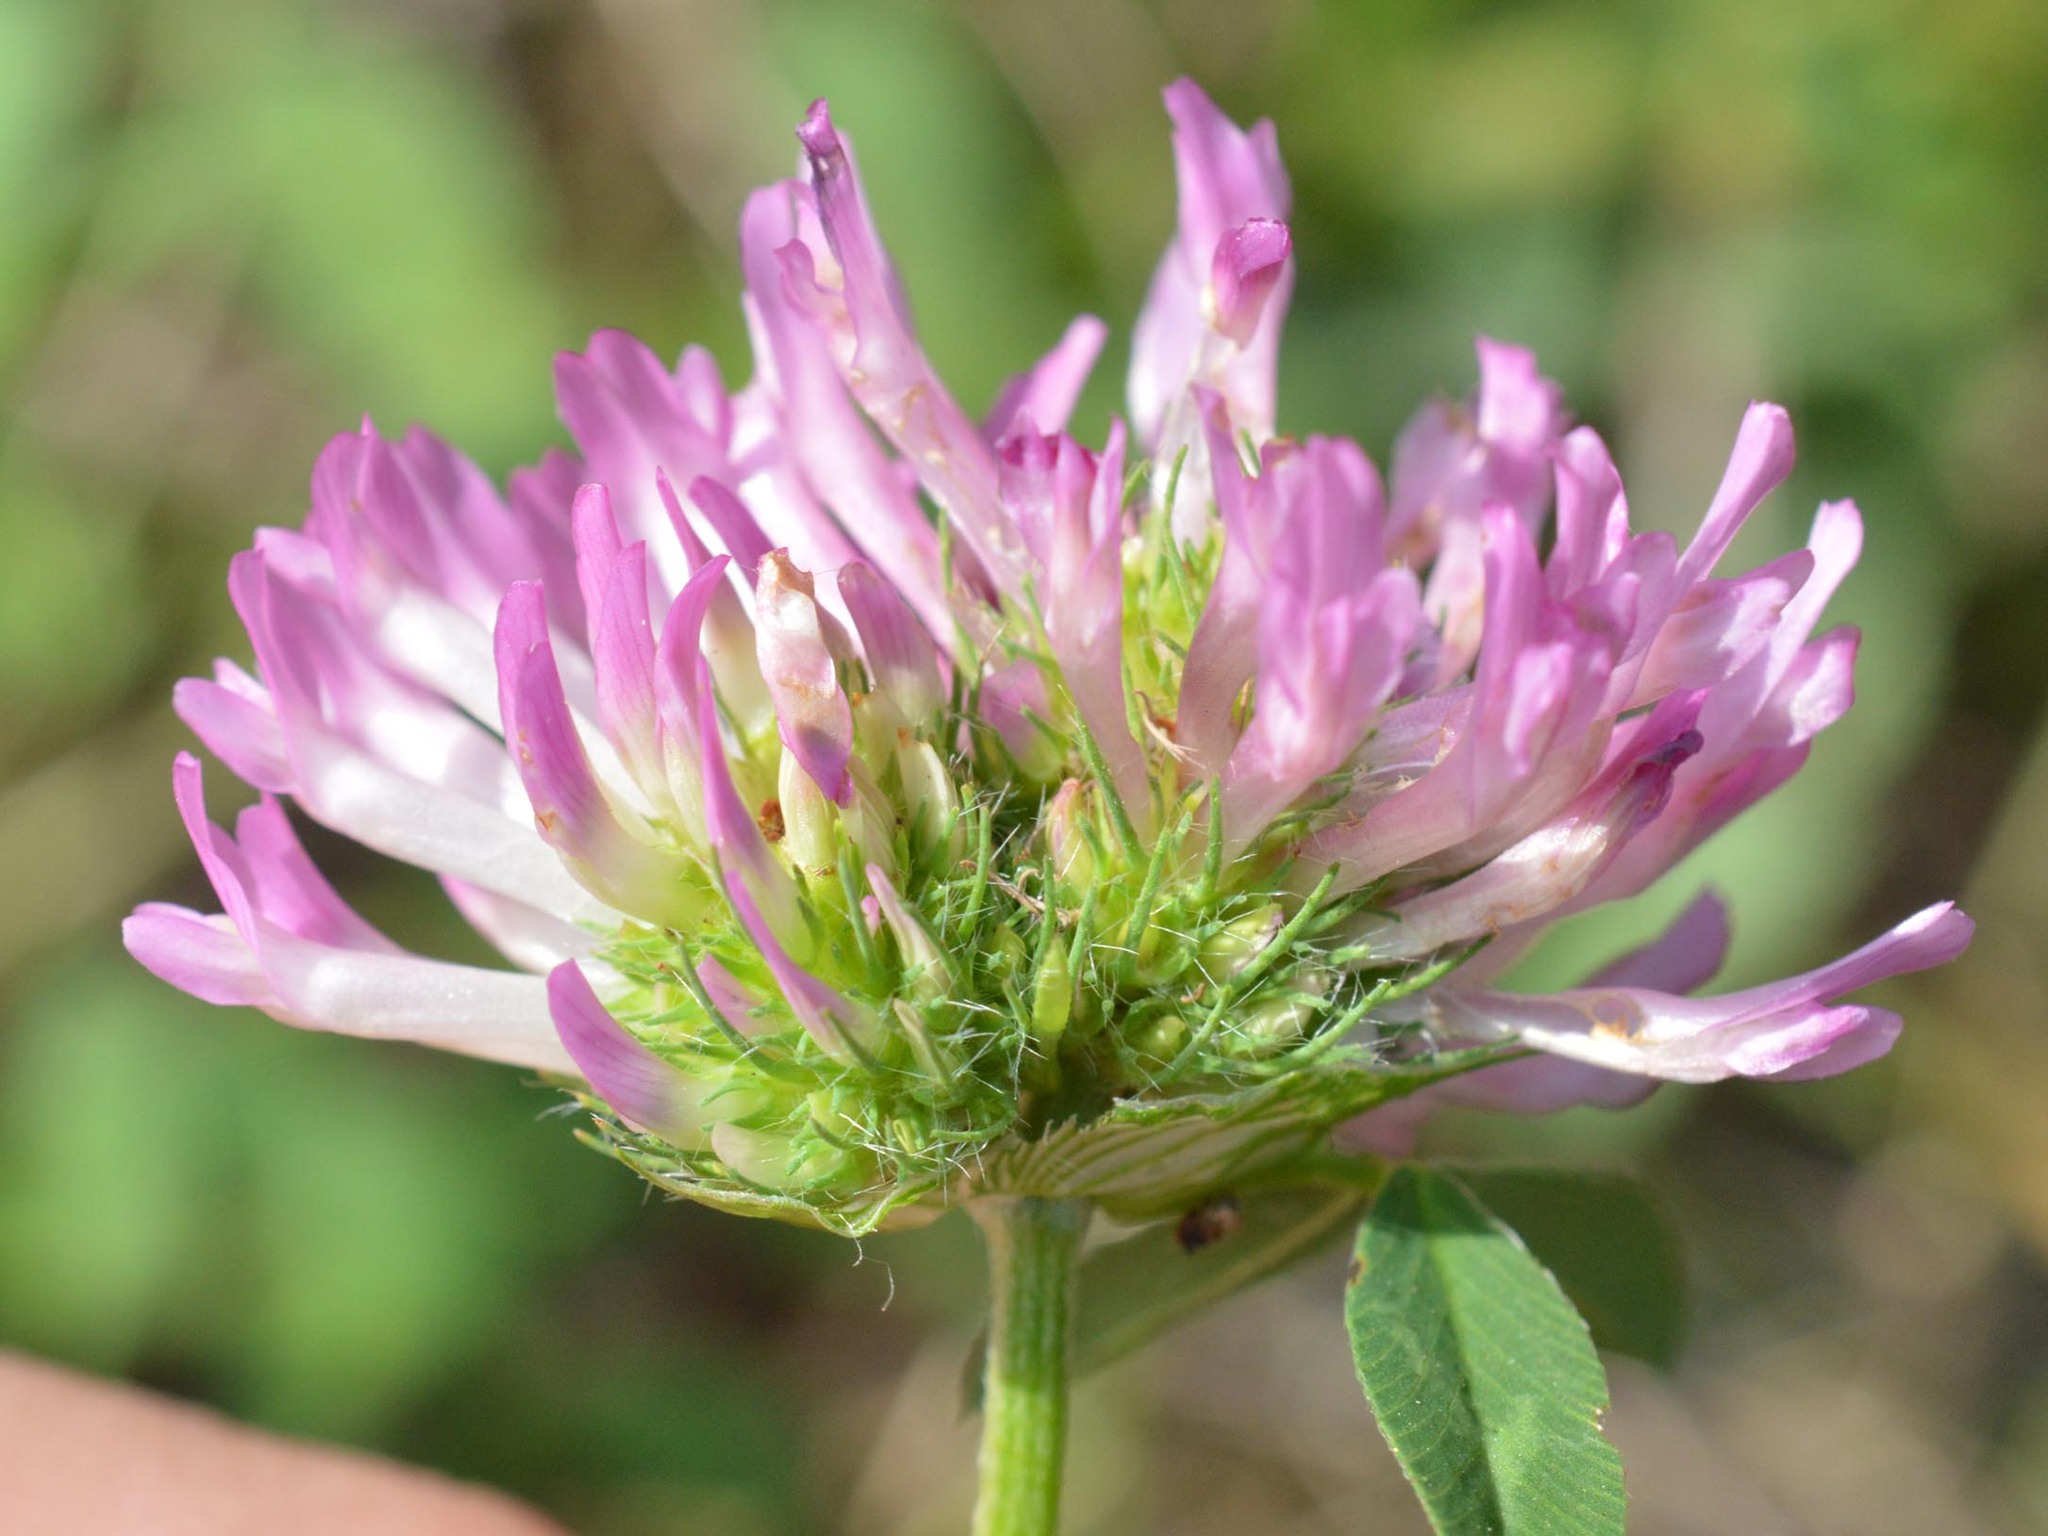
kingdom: Plantae
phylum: Tracheophyta
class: Magnoliopsida
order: Fabales
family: Fabaceae
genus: Trifolium
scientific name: Trifolium pratense
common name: Red clover
